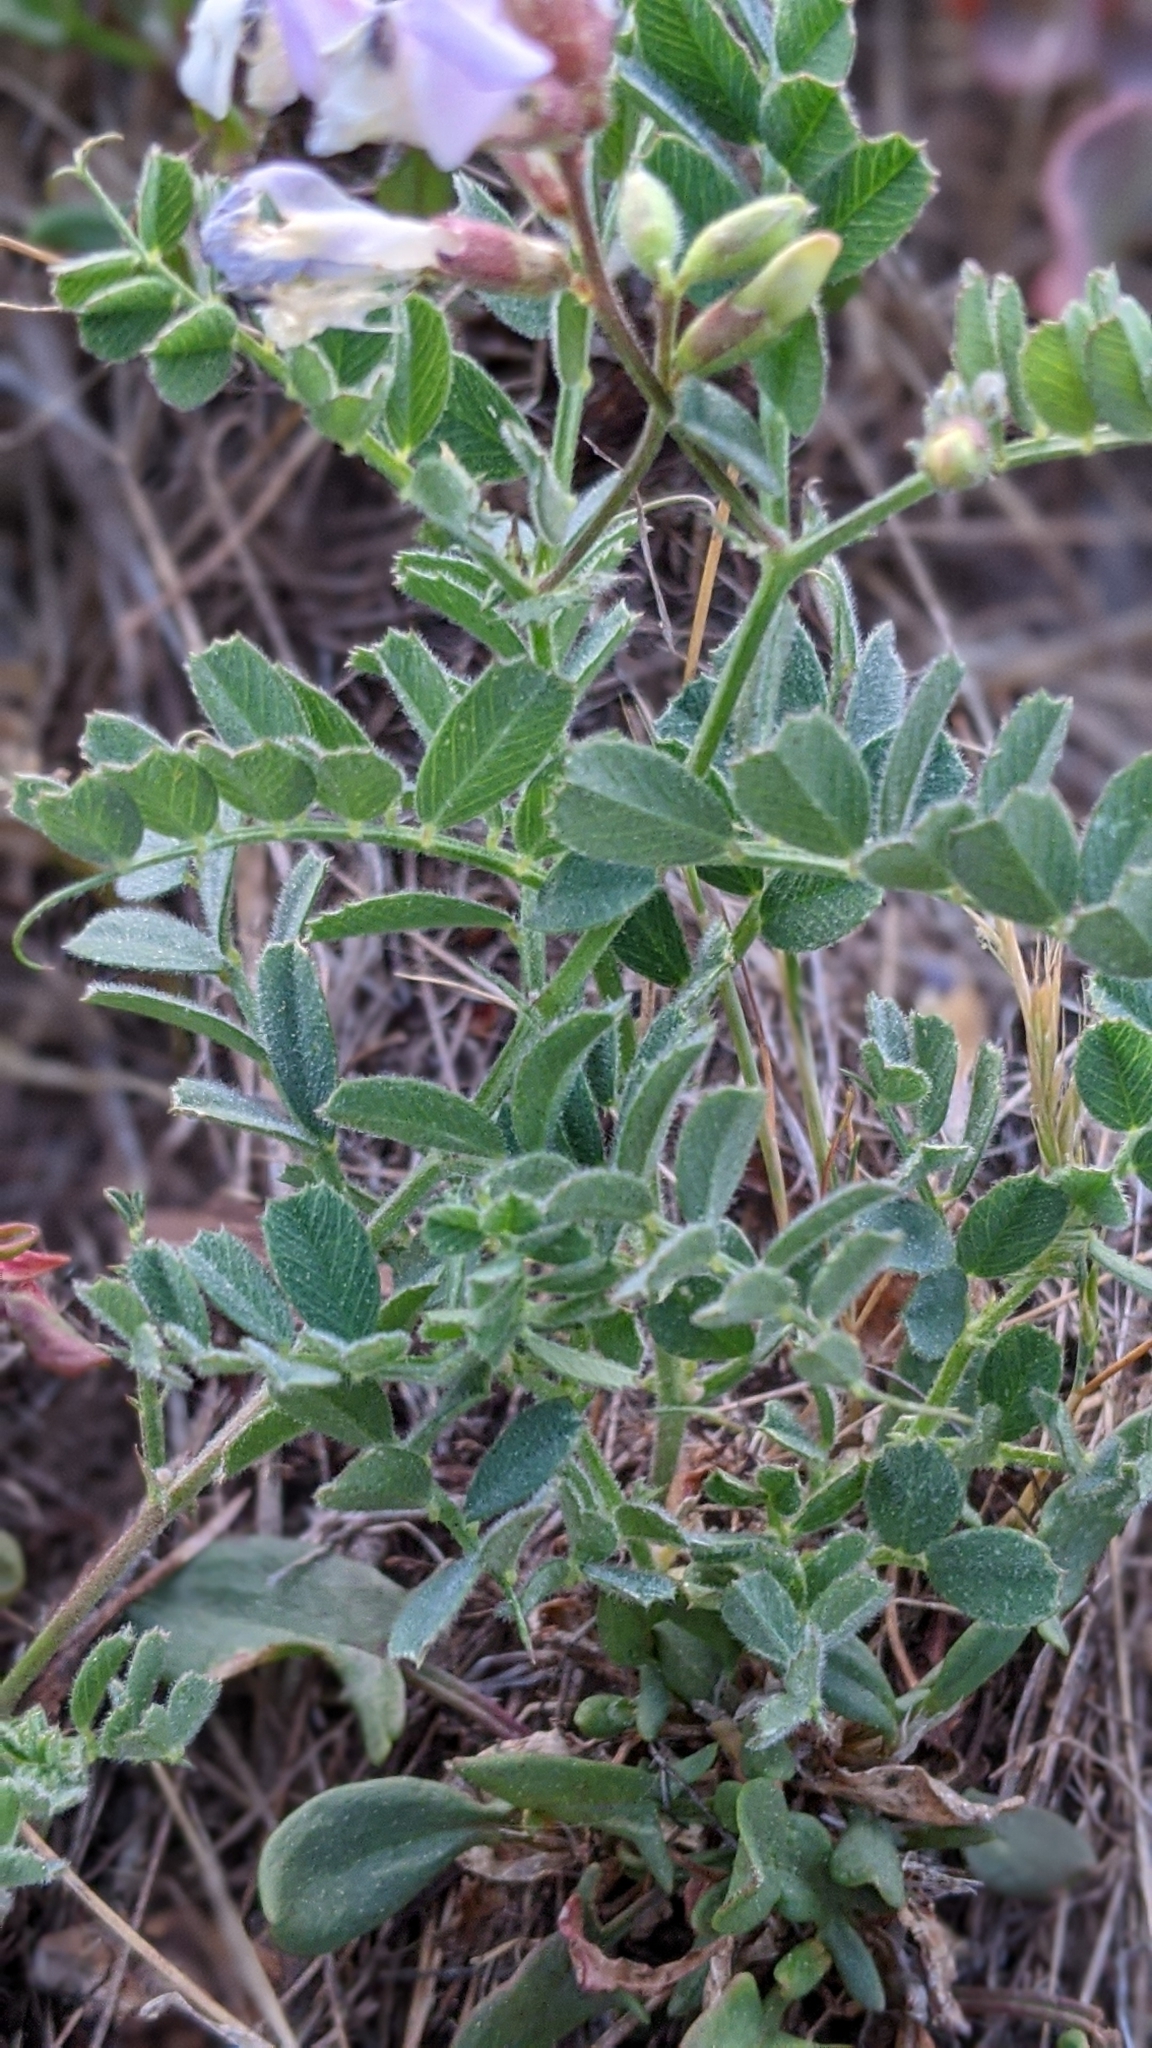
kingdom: Plantae
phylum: Tracheophyta
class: Magnoliopsida
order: Fabales
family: Fabaceae
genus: Vicia
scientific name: Vicia americana
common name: American vetch
